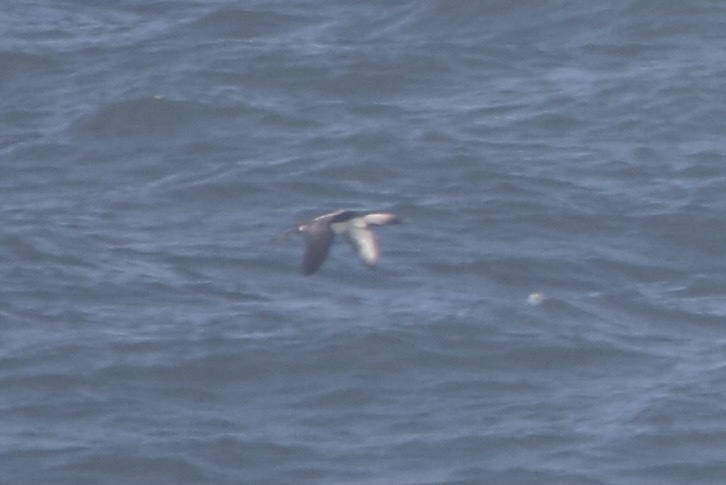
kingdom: Animalia
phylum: Chordata
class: Aves
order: Gaviiformes
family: Gaviidae
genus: Gavia
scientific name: Gavia pacifica
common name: Pacific loon
